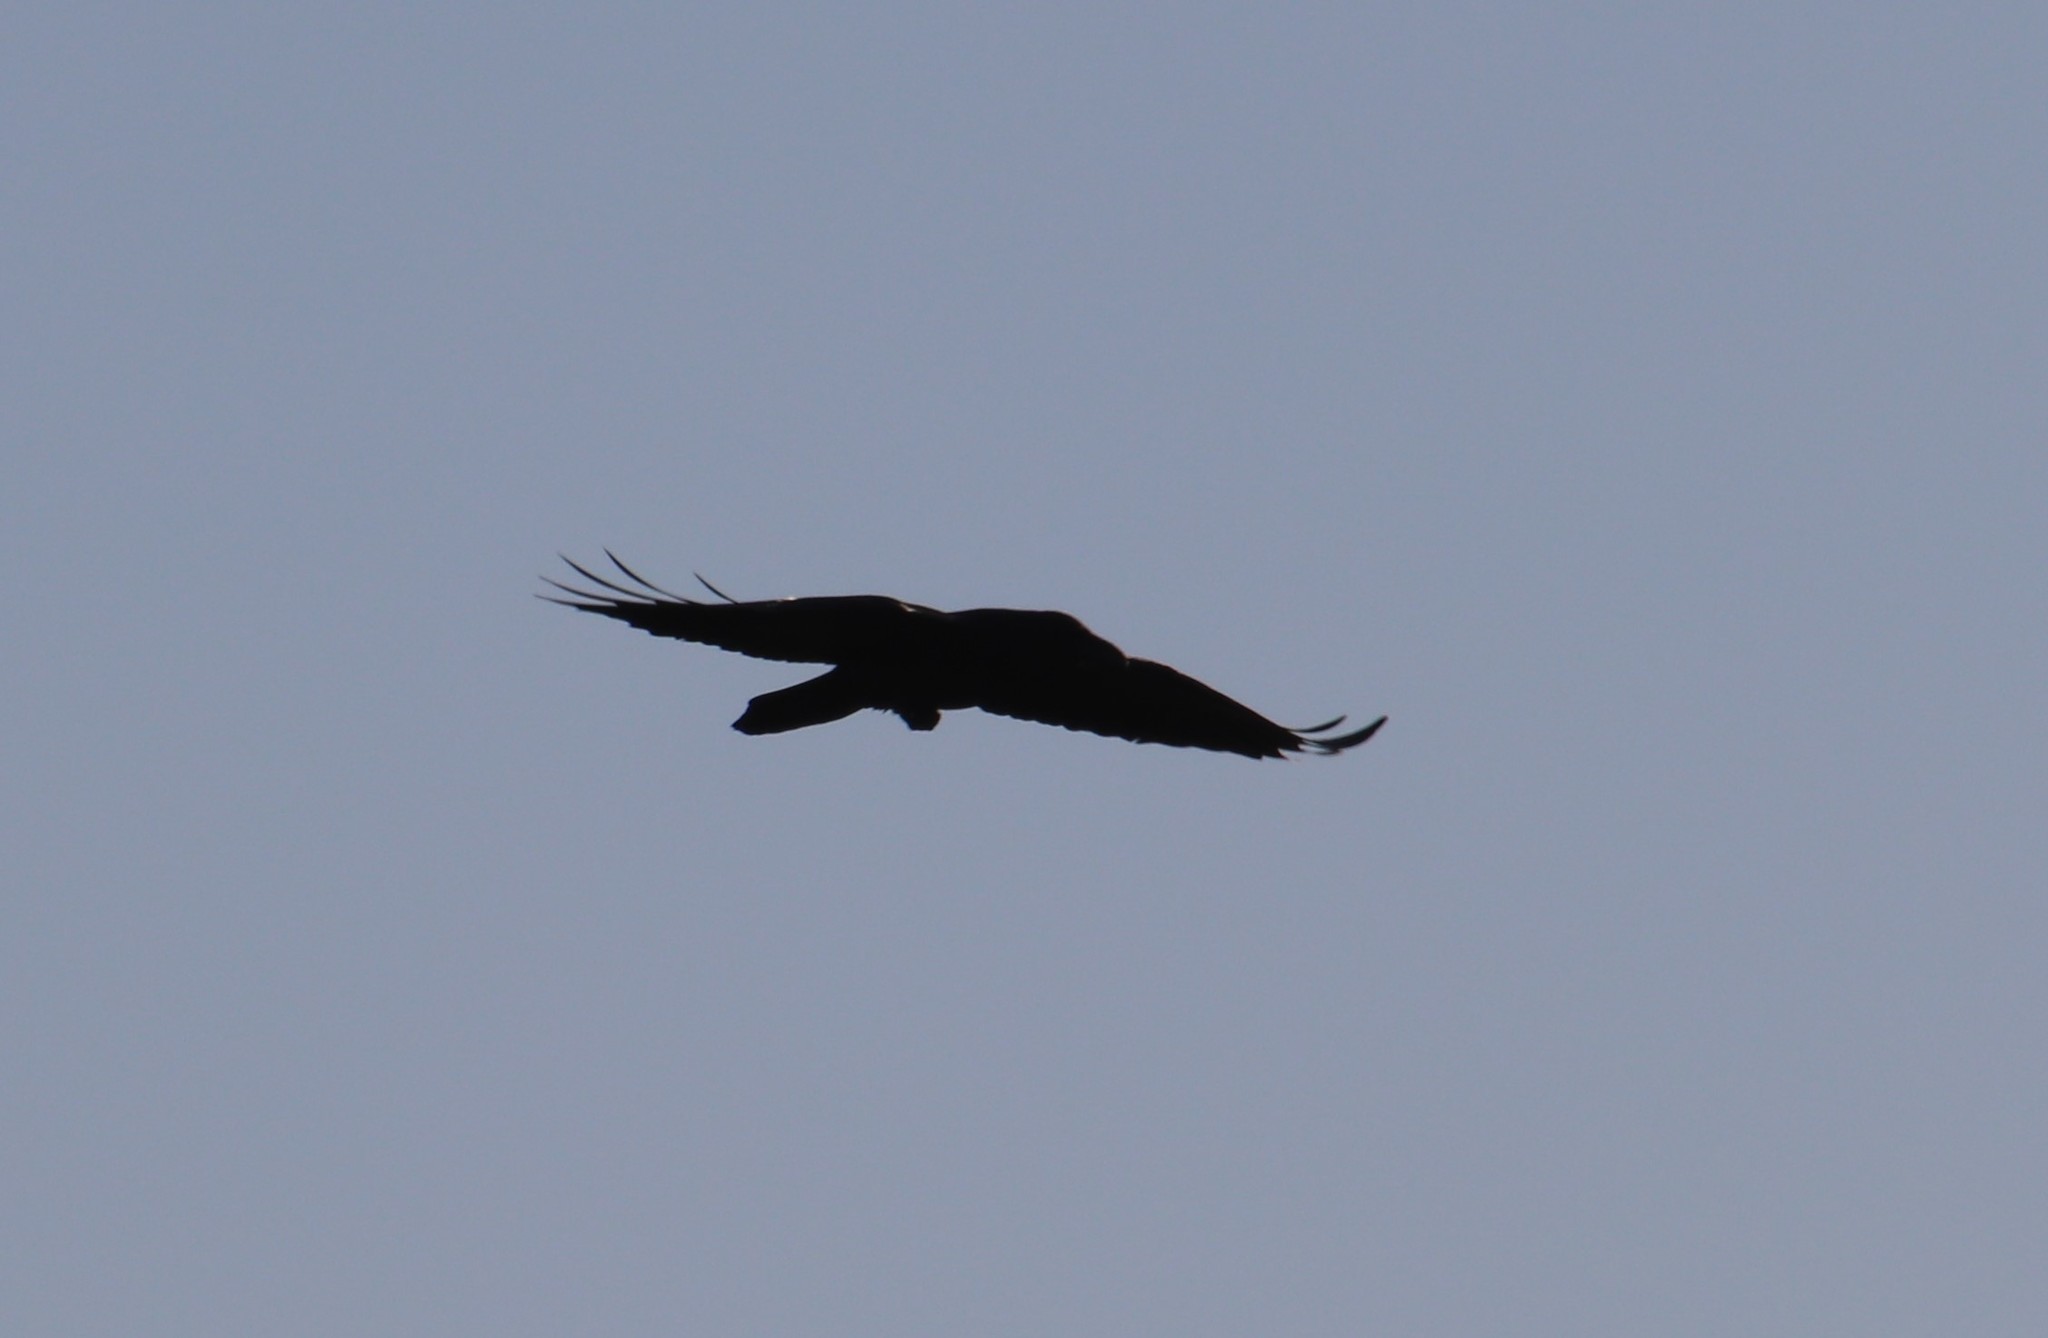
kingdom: Animalia
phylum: Chordata
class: Aves
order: Passeriformes
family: Corvidae
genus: Corvus
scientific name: Corvus corax
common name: Common raven
